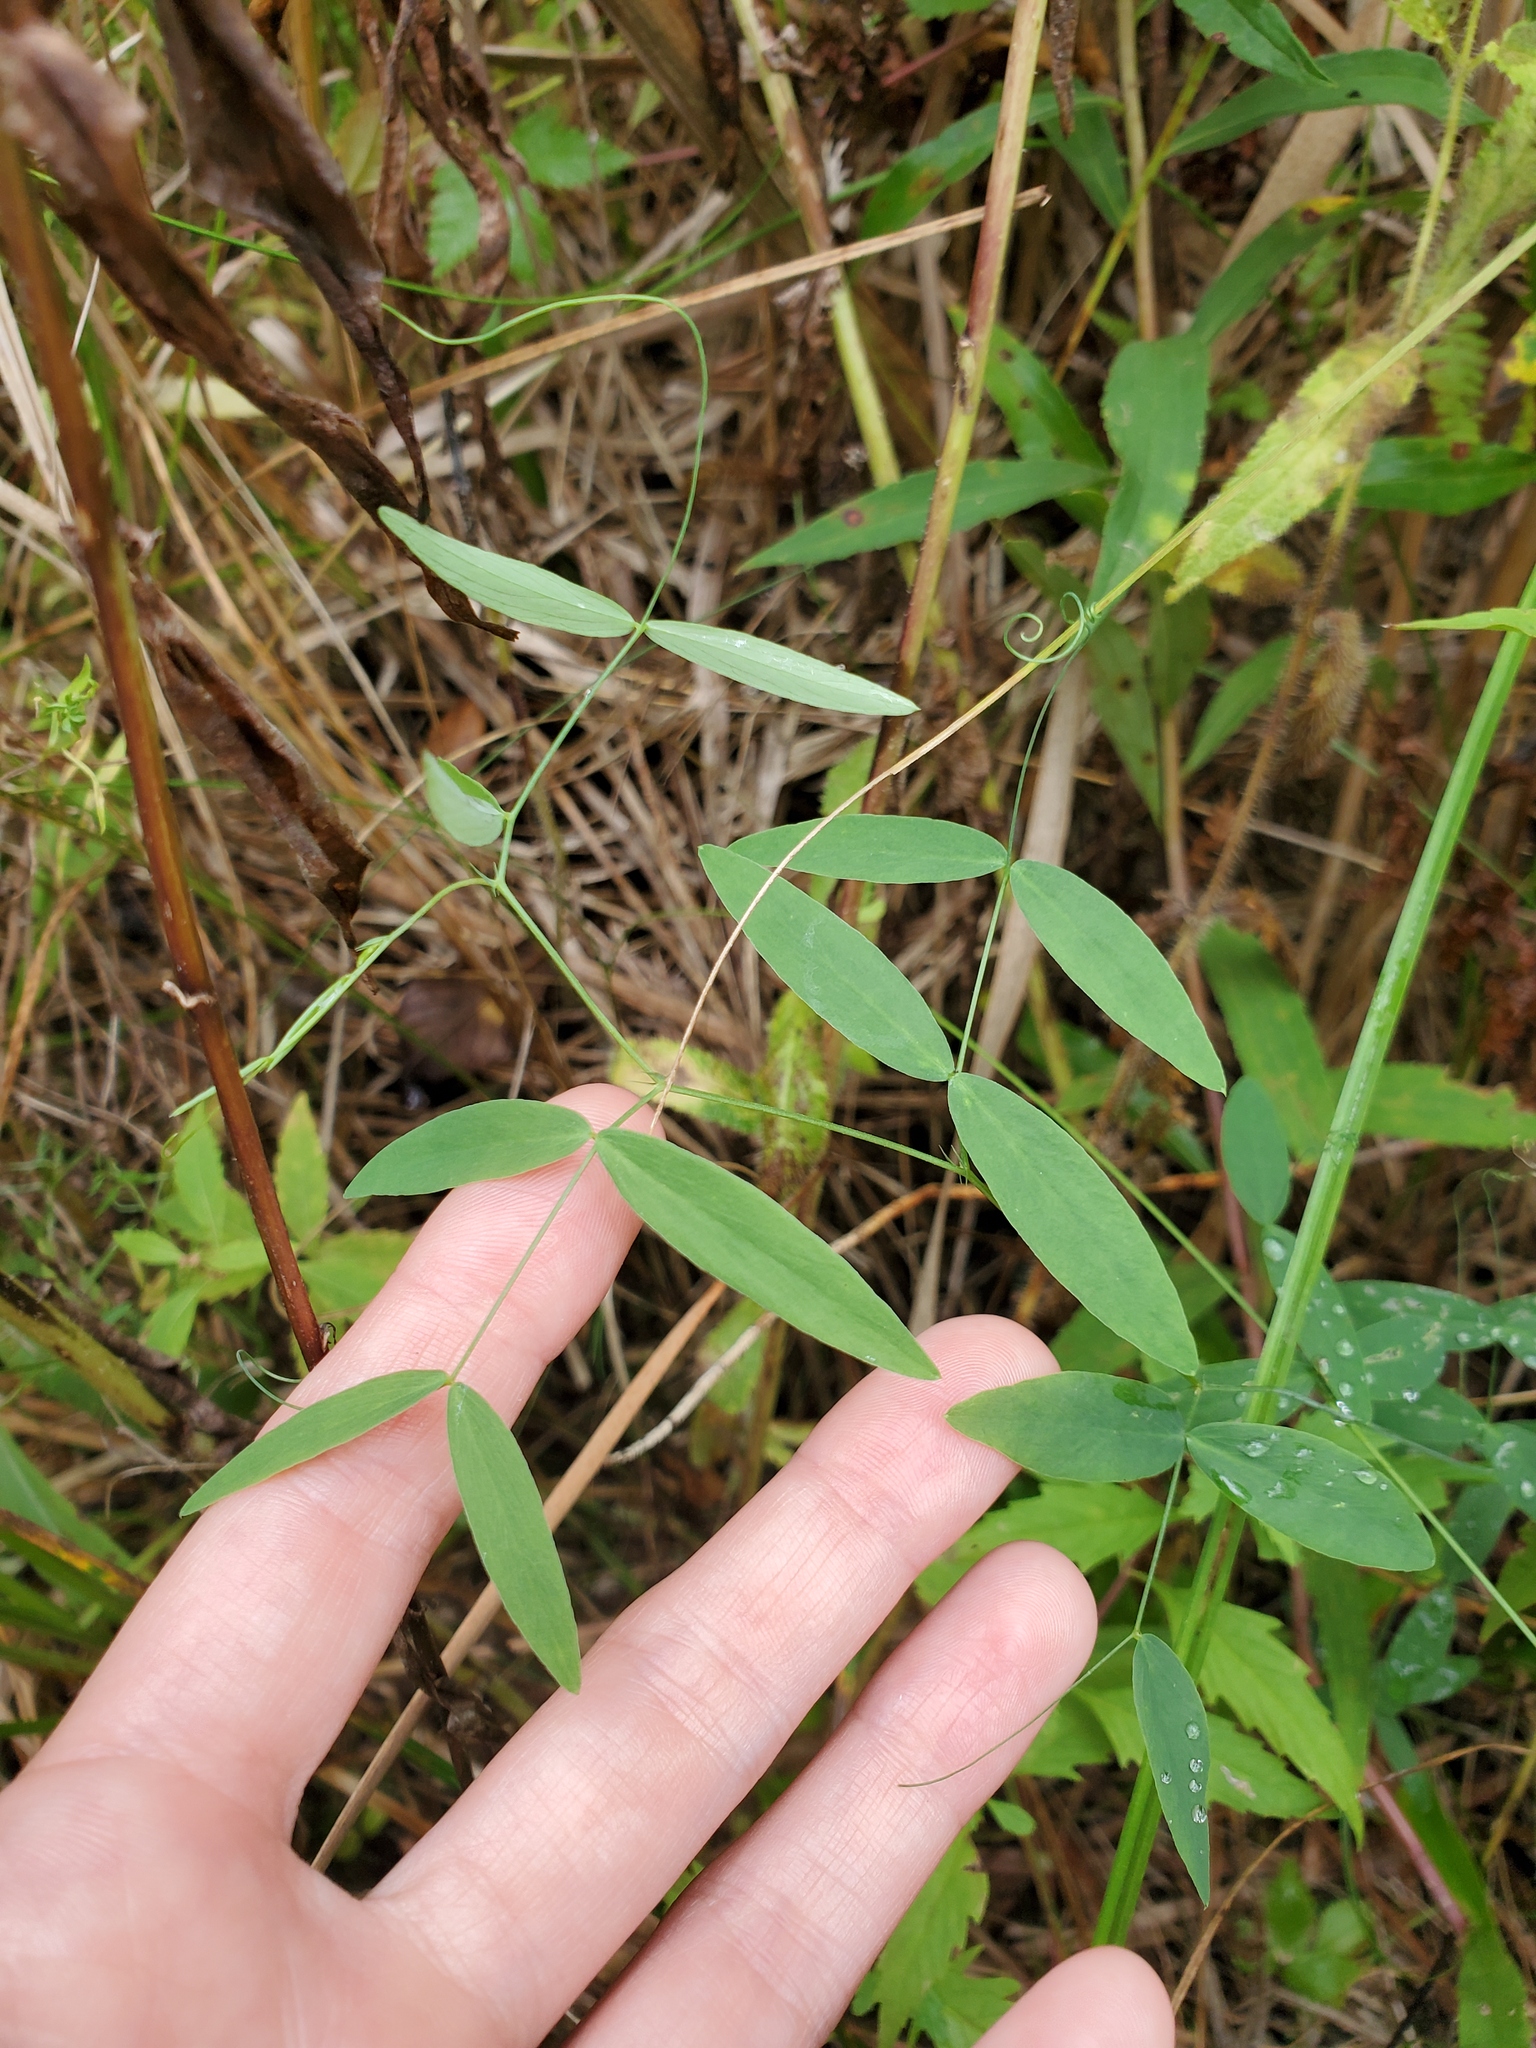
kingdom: Plantae
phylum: Tracheophyta
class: Magnoliopsida
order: Fabales
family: Fabaceae
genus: Lathyrus
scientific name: Lathyrus palustris
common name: Marsh pea
